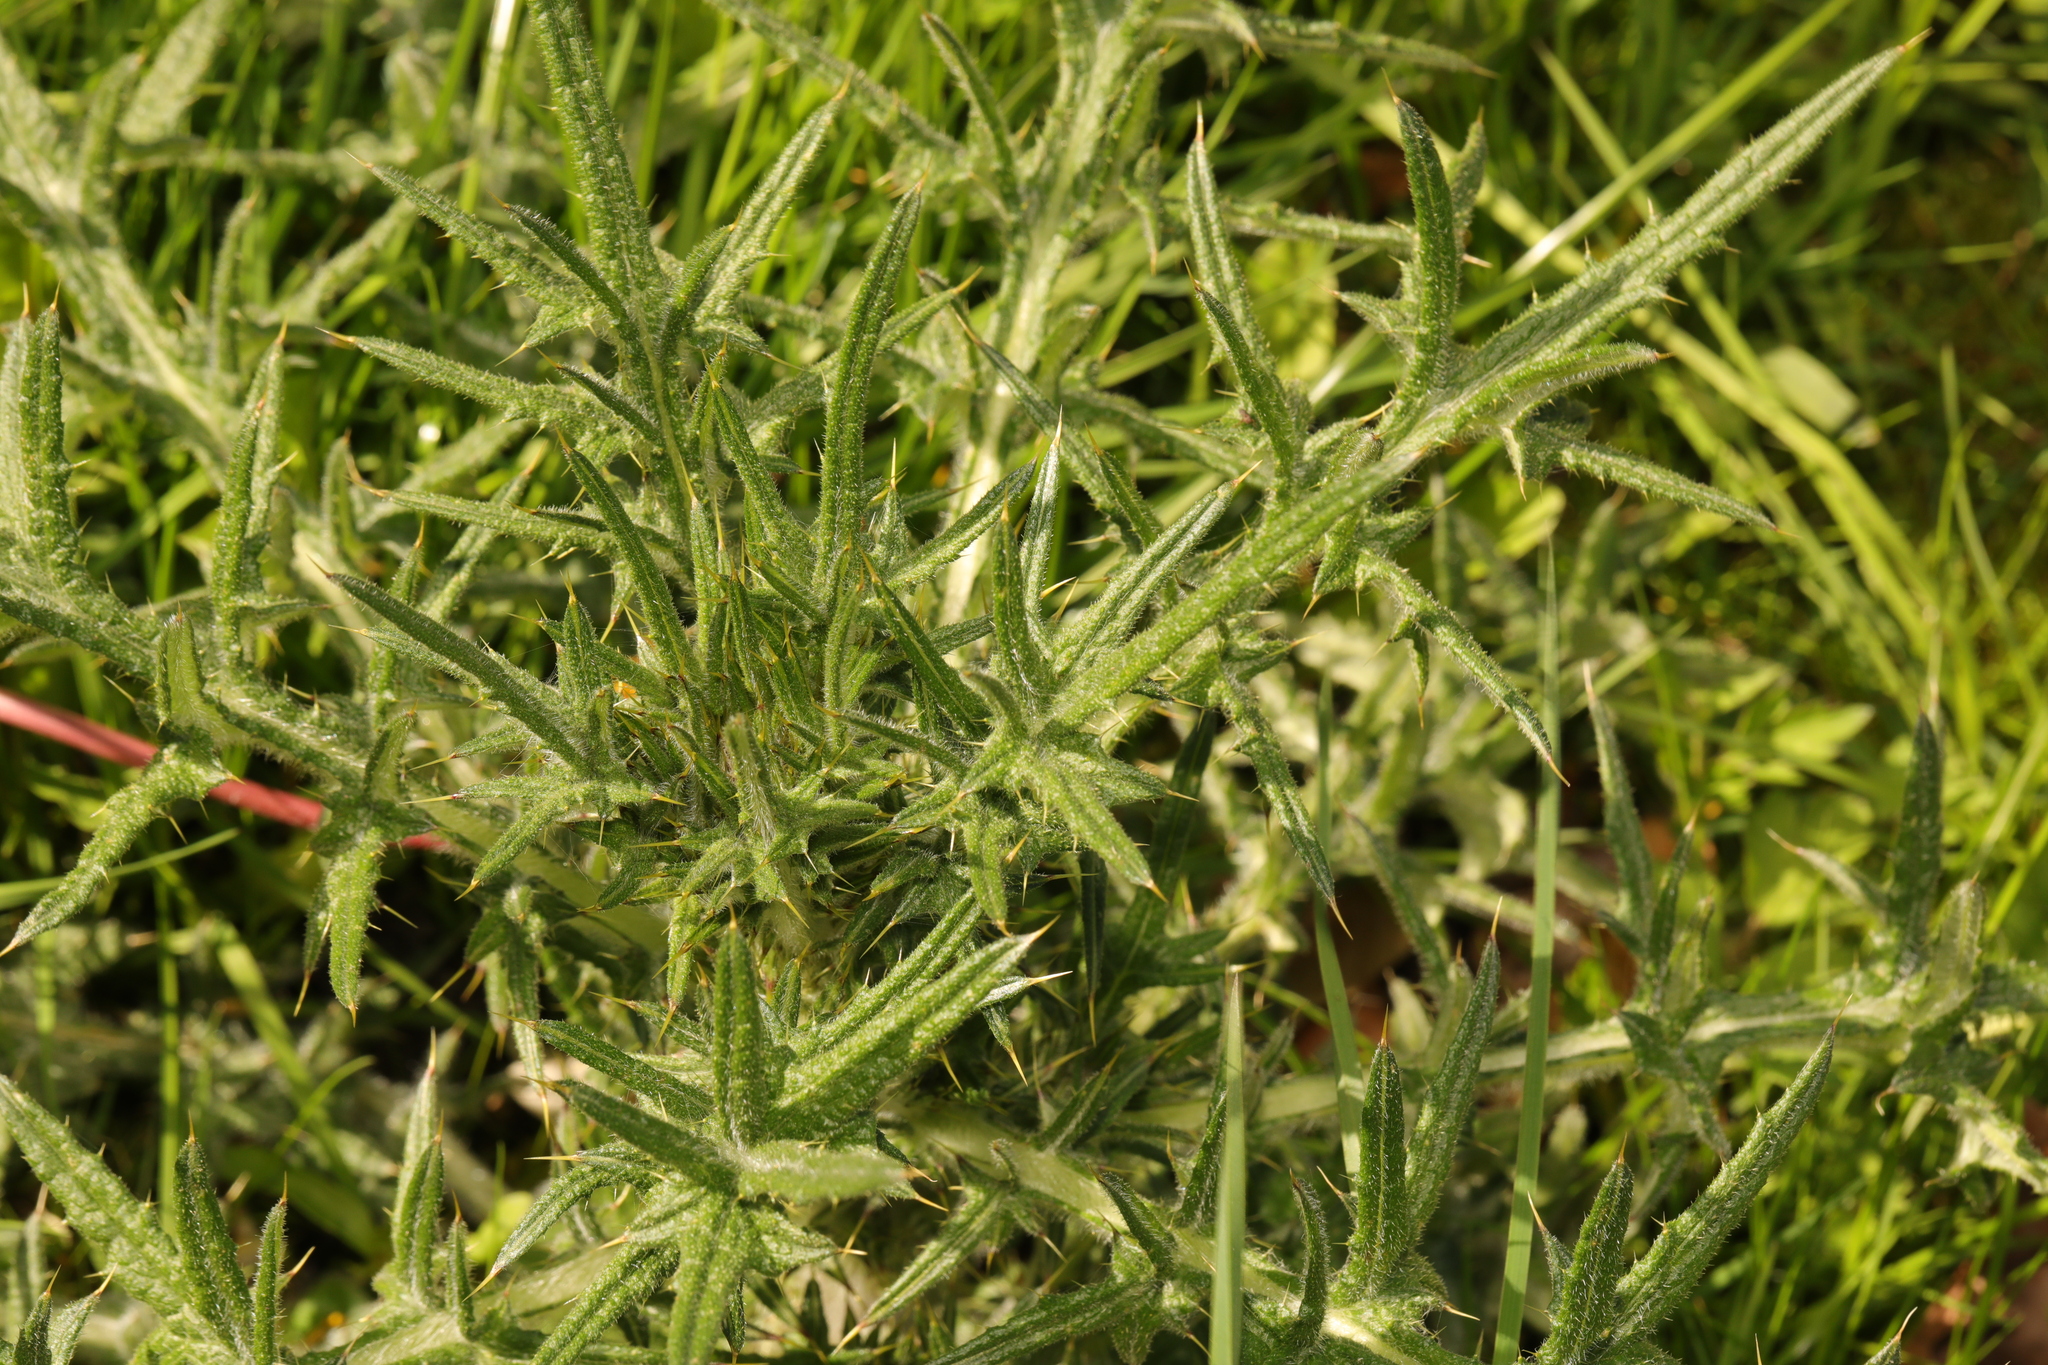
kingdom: Plantae
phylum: Tracheophyta
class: Magnoliopsida
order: Asterales
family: Asteraceae
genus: Cirsium
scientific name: Cirsium vulgare
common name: Bull thistle
